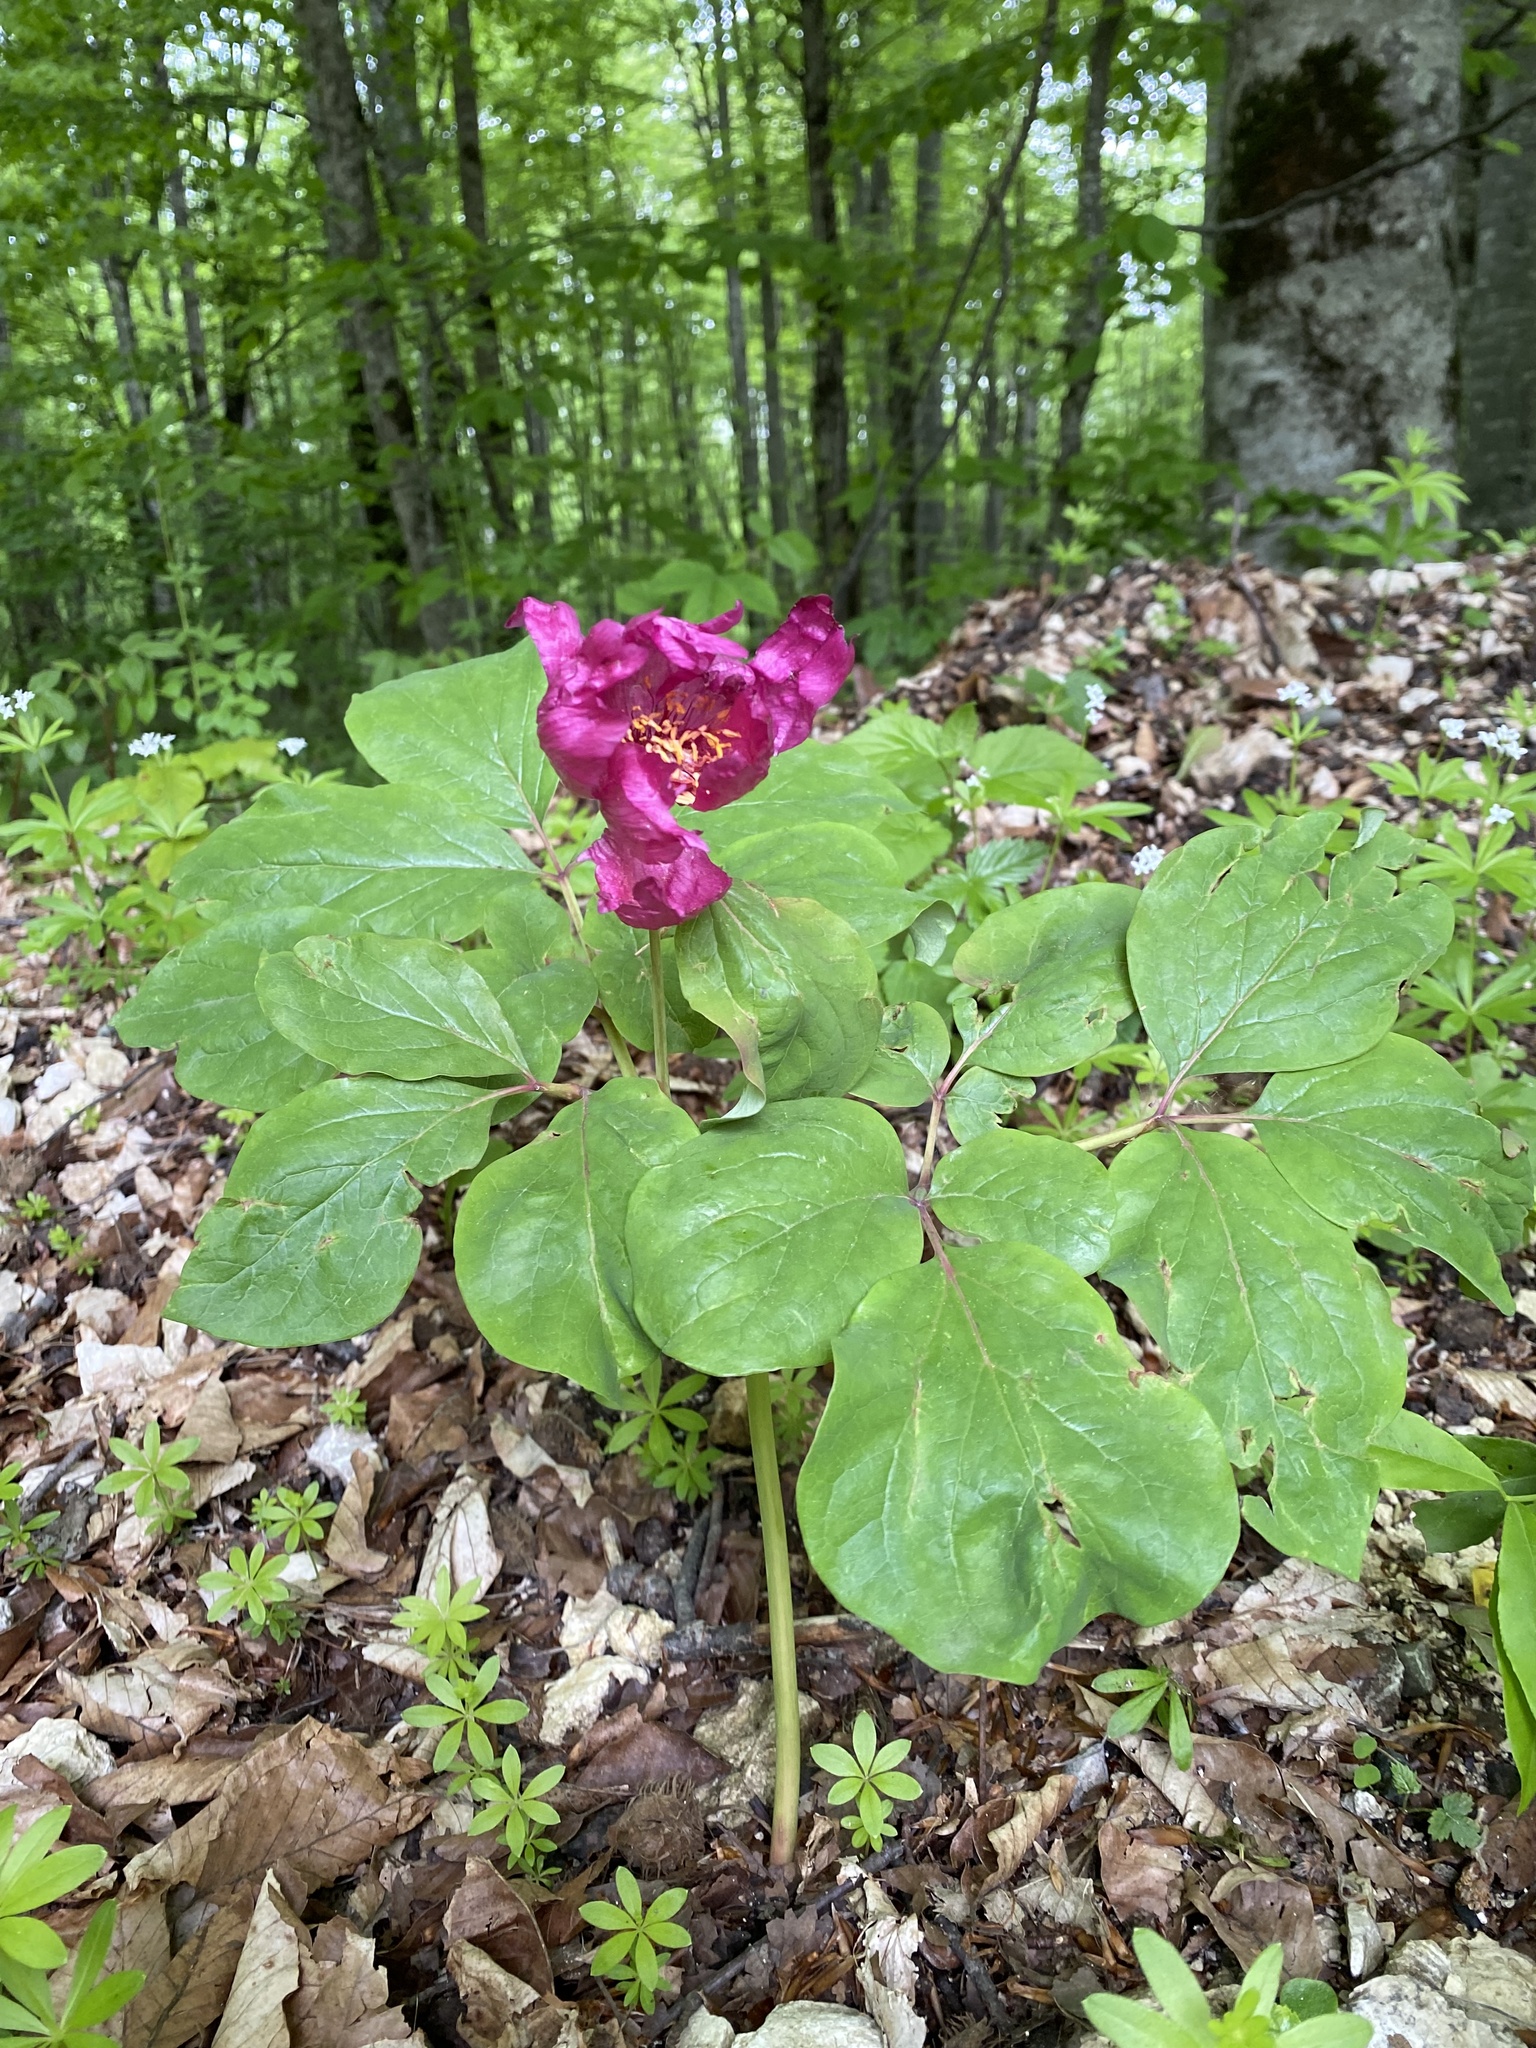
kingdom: Plantae
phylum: Tracheophyta
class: Magnoliopsida
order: Saxifragales
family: Paeoniaceae
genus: Paeonia
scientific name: Paeonia caucasica
